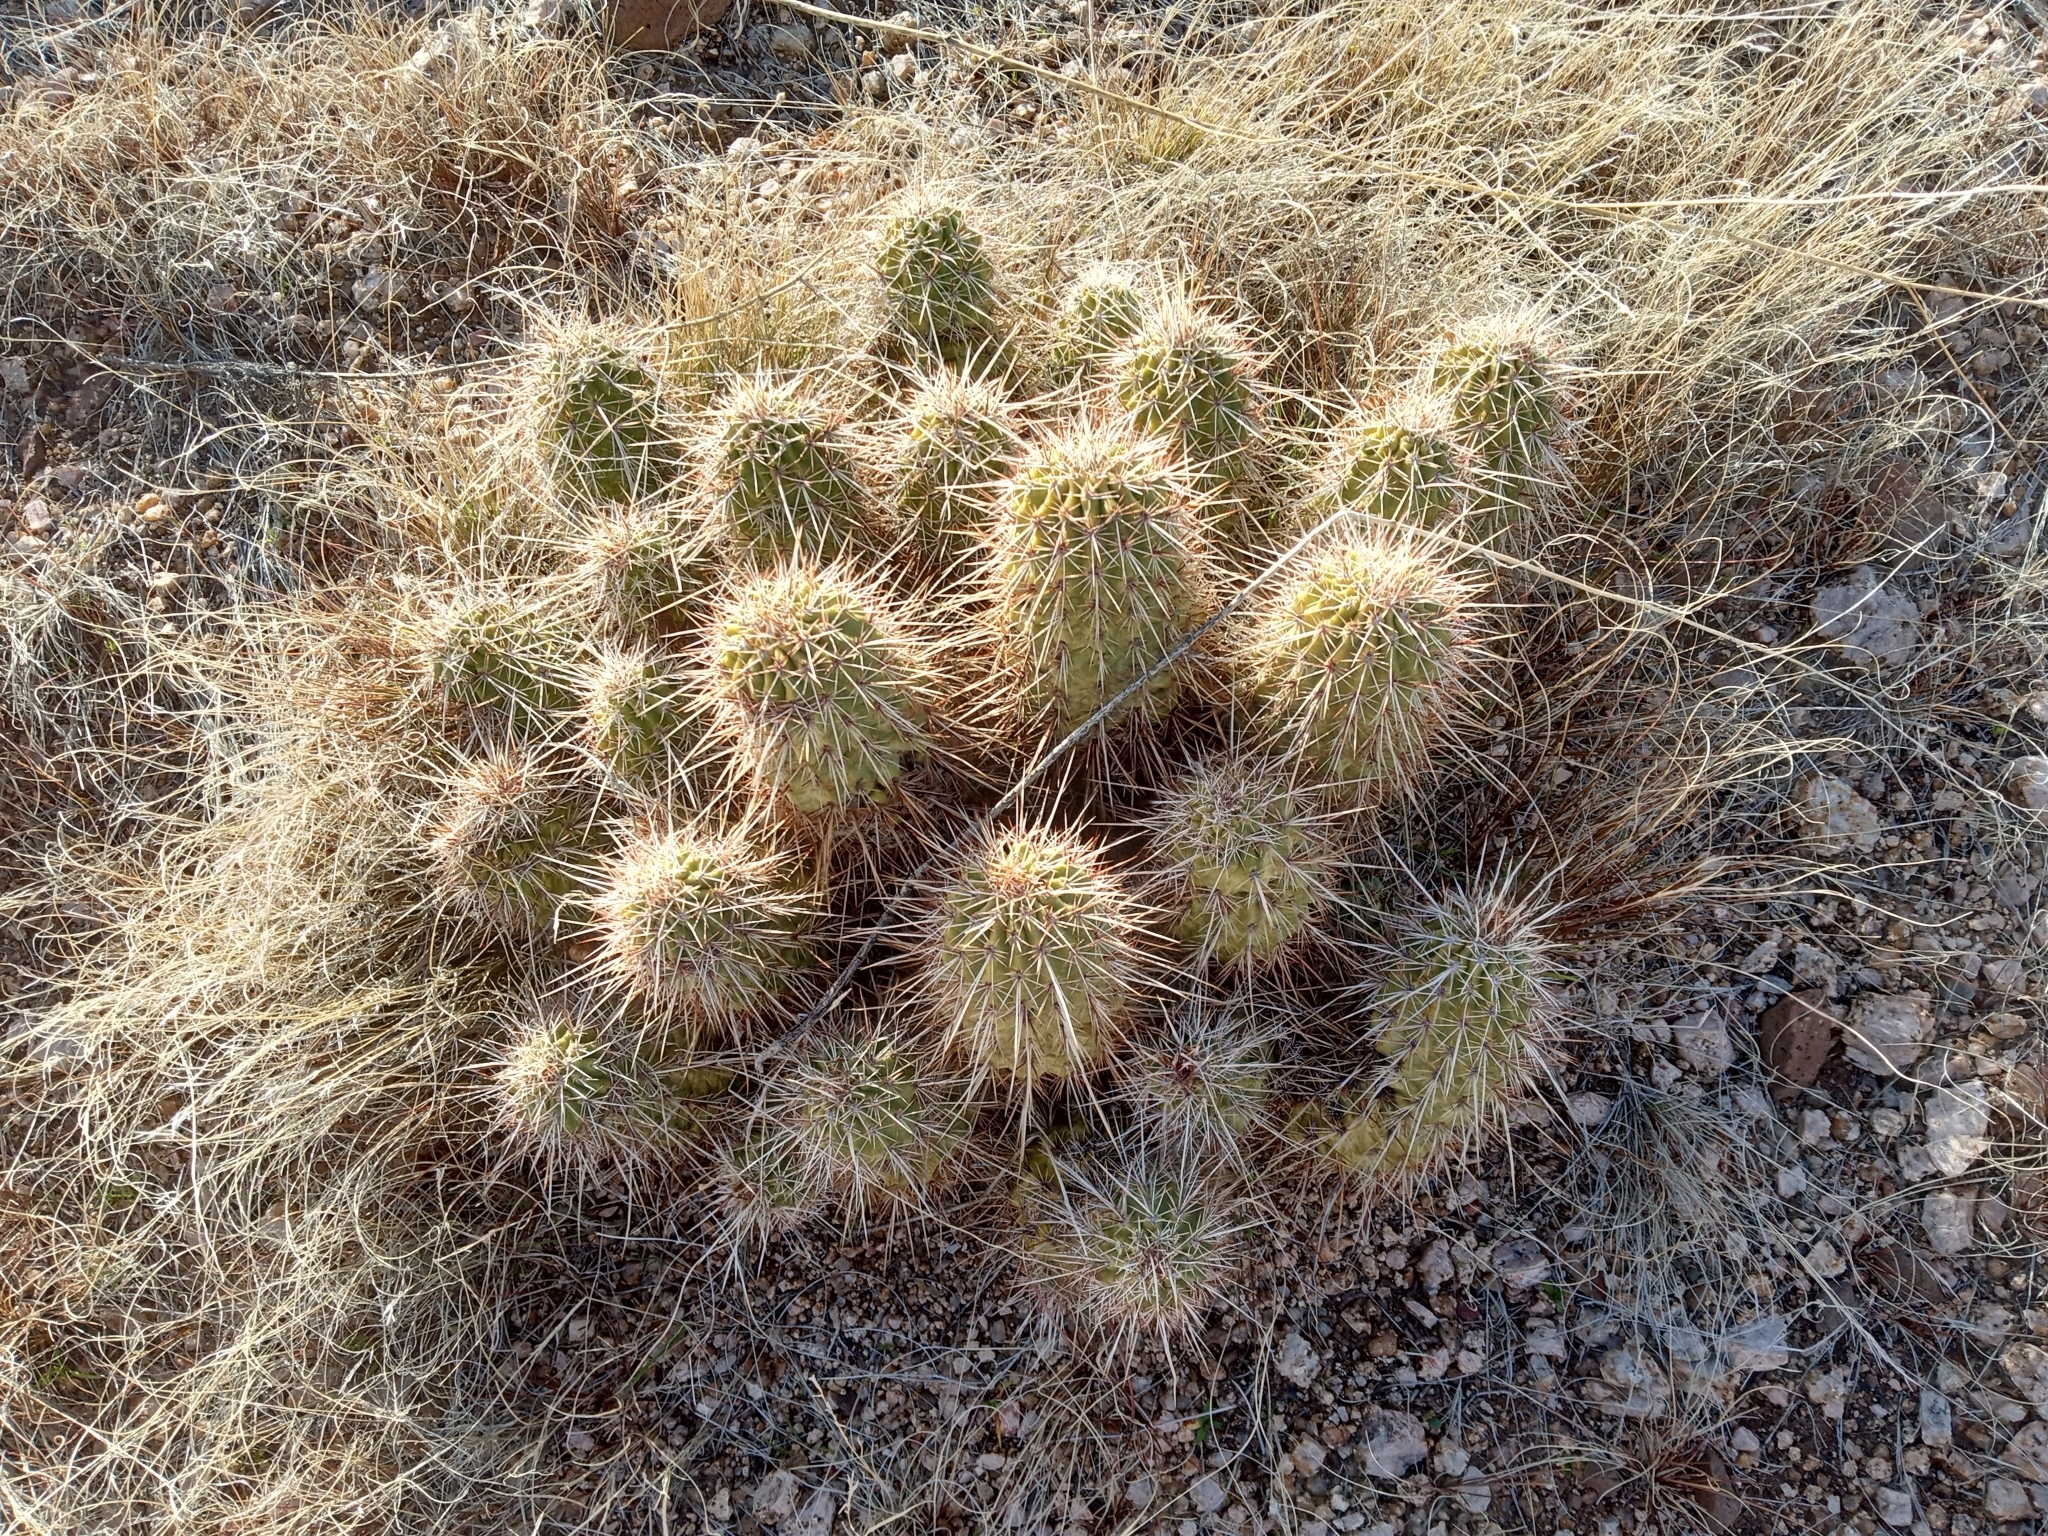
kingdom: Plantae
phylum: Tracheophyta
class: Magnoliopsida
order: Caryophyllales
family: Cactaceae
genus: Echinocereus
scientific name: Echinocereus bonkerae
